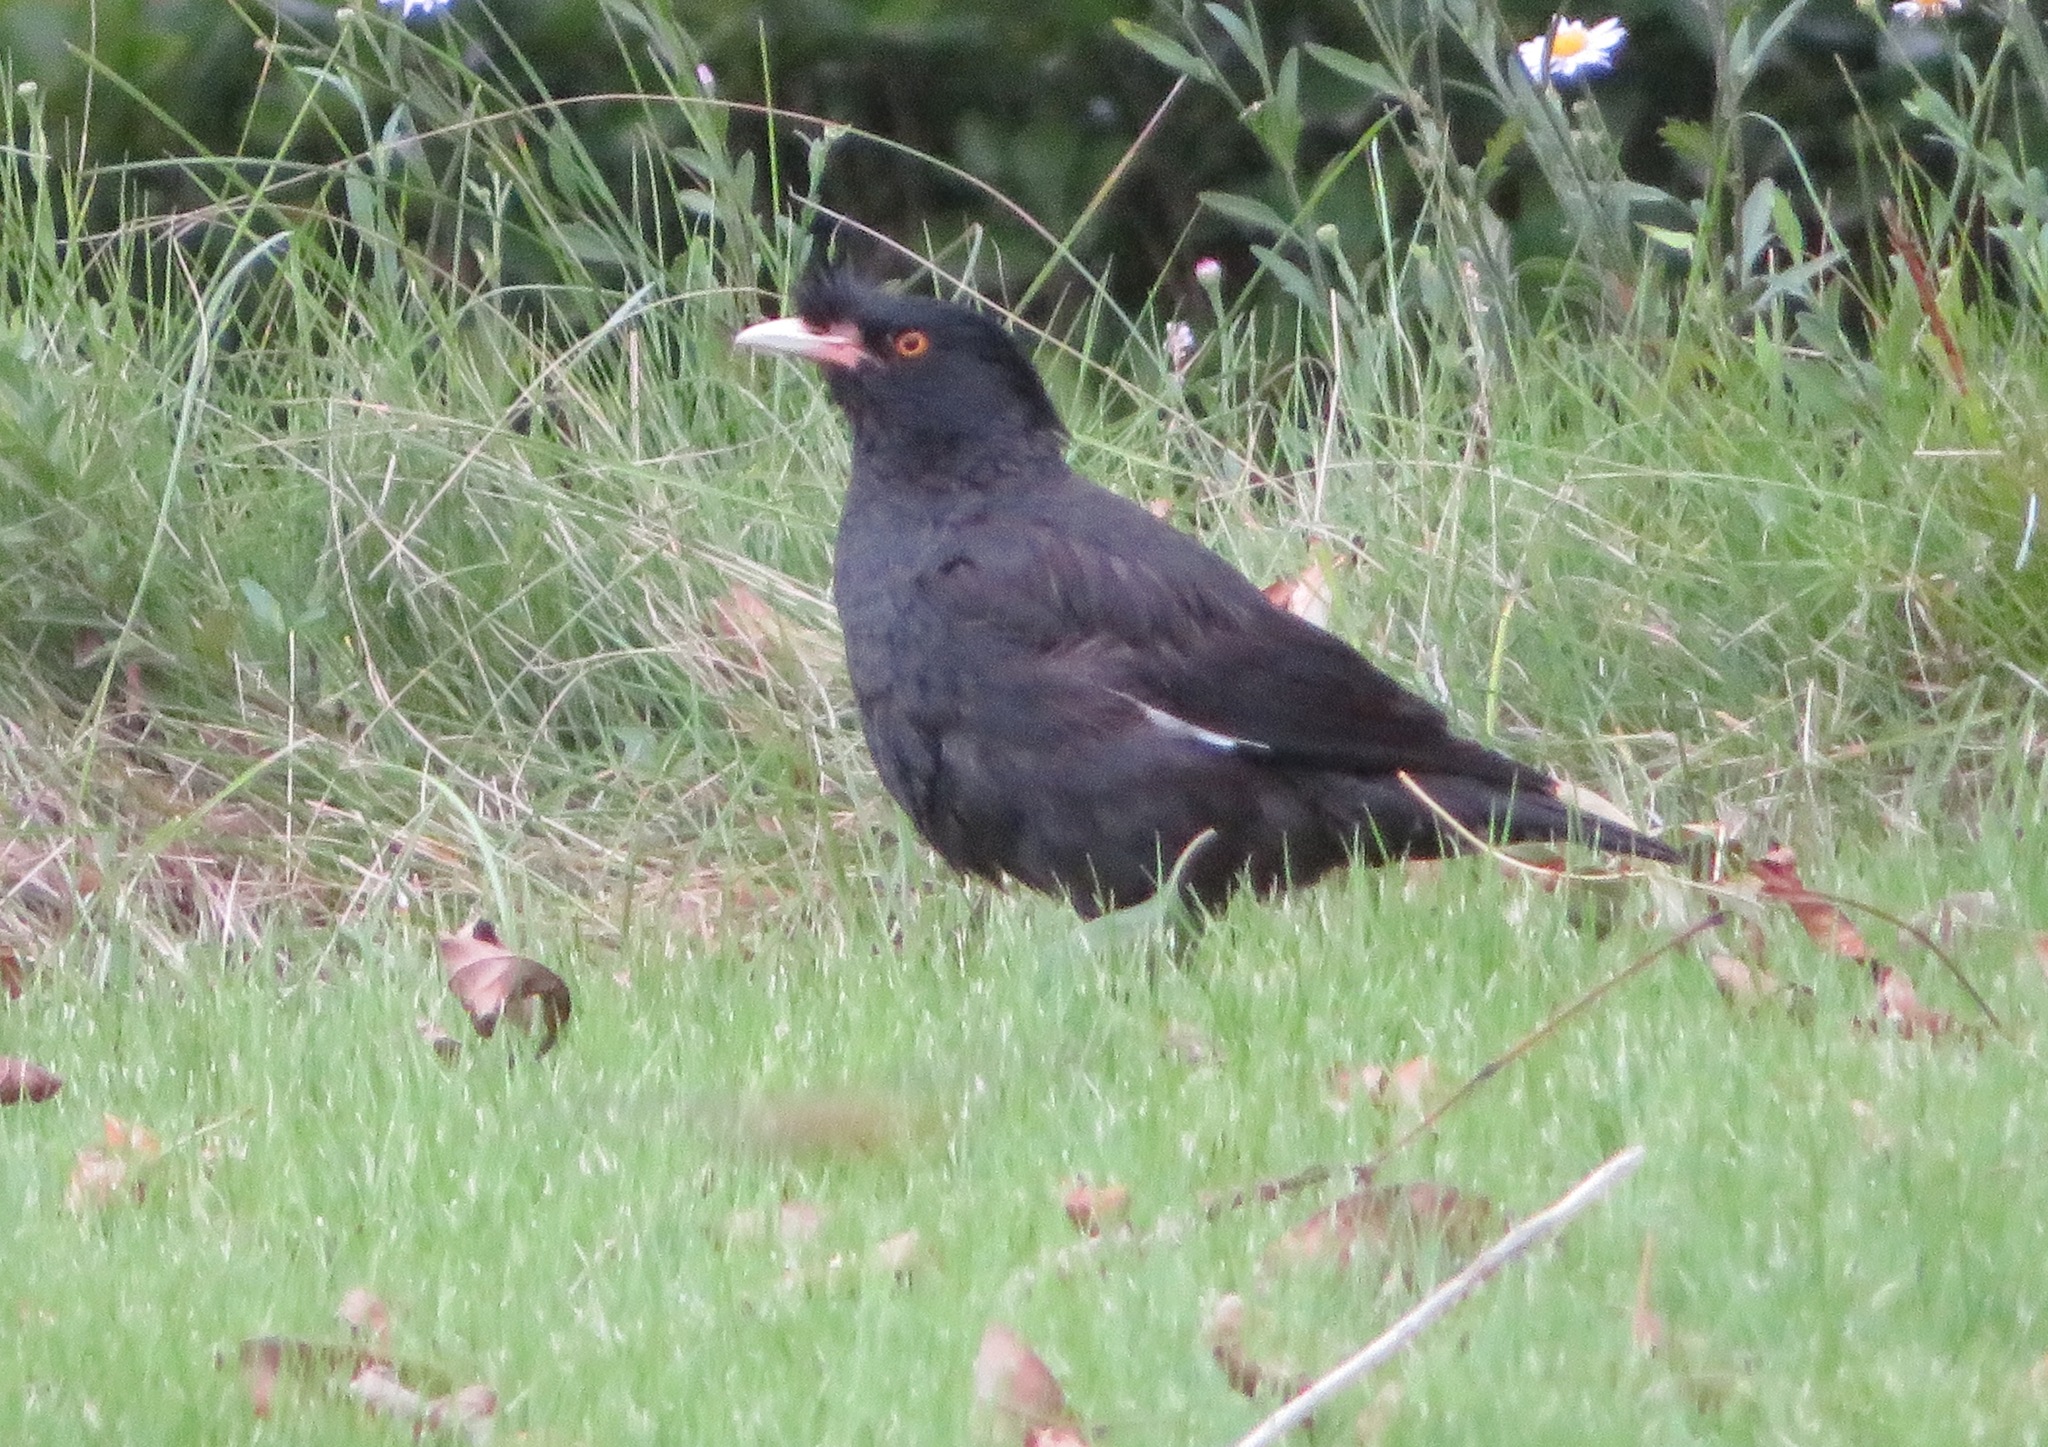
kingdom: Animalia
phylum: Chordata
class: Aves
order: Passeriformes
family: Sturnidae
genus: Acridotheres
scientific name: Acridotheres cristatellus
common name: Crested myna
